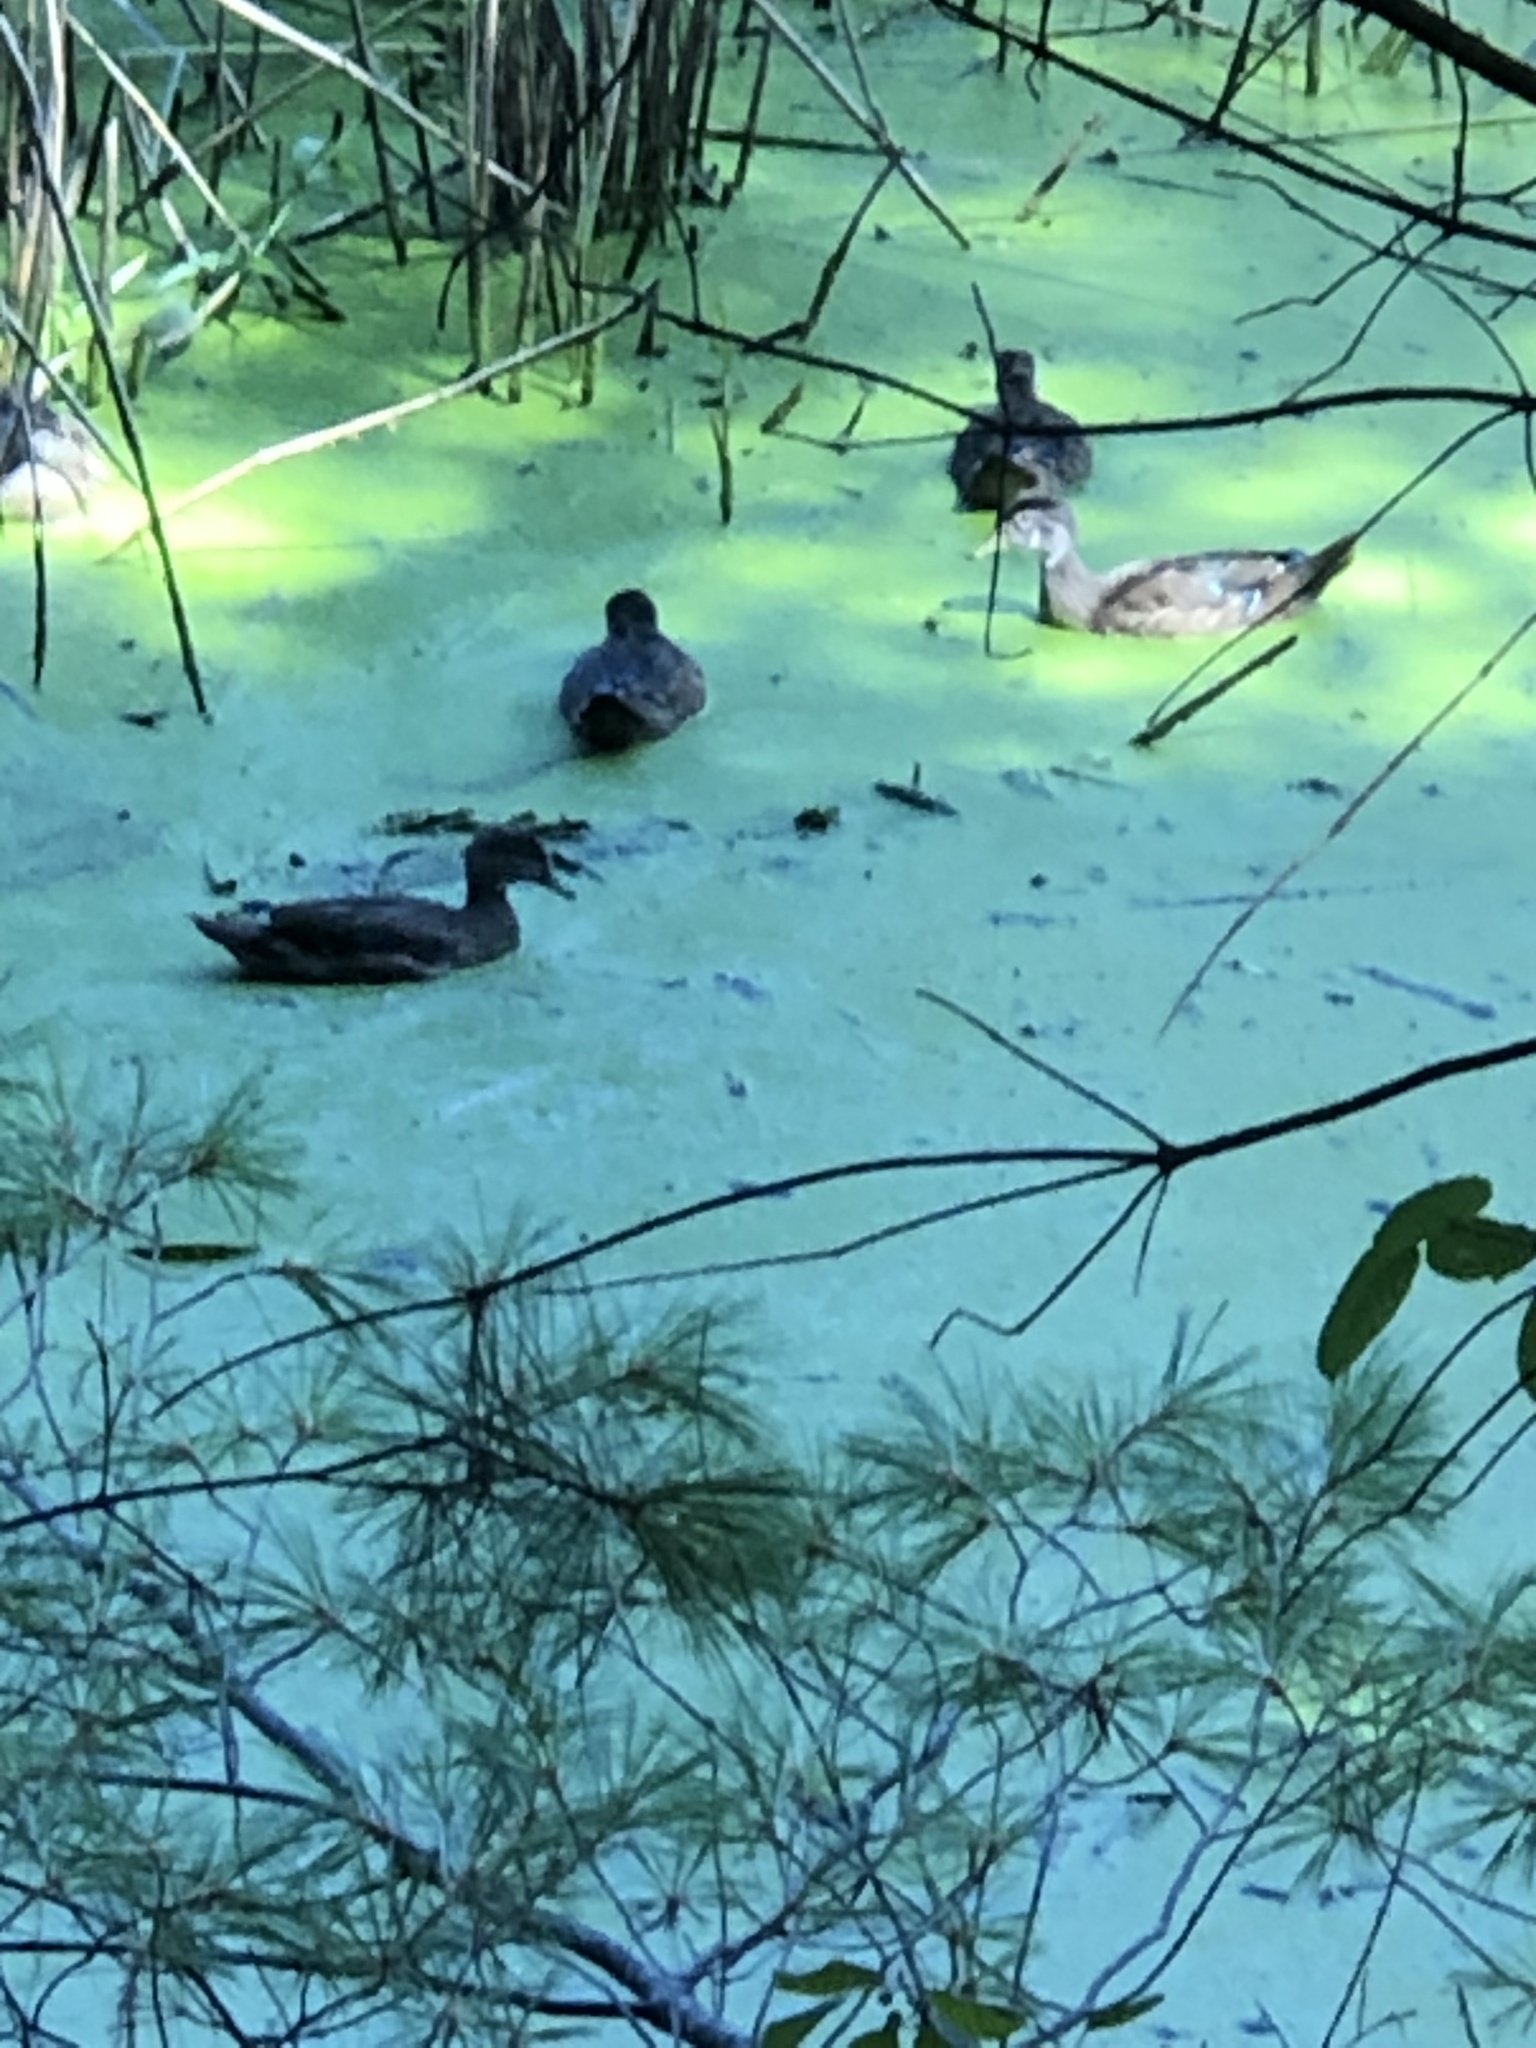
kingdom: Animalia
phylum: Chordata
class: Aves
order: Anseriformes
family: Anatidae
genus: Aix
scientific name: Aix sponsa
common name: Wood duck
